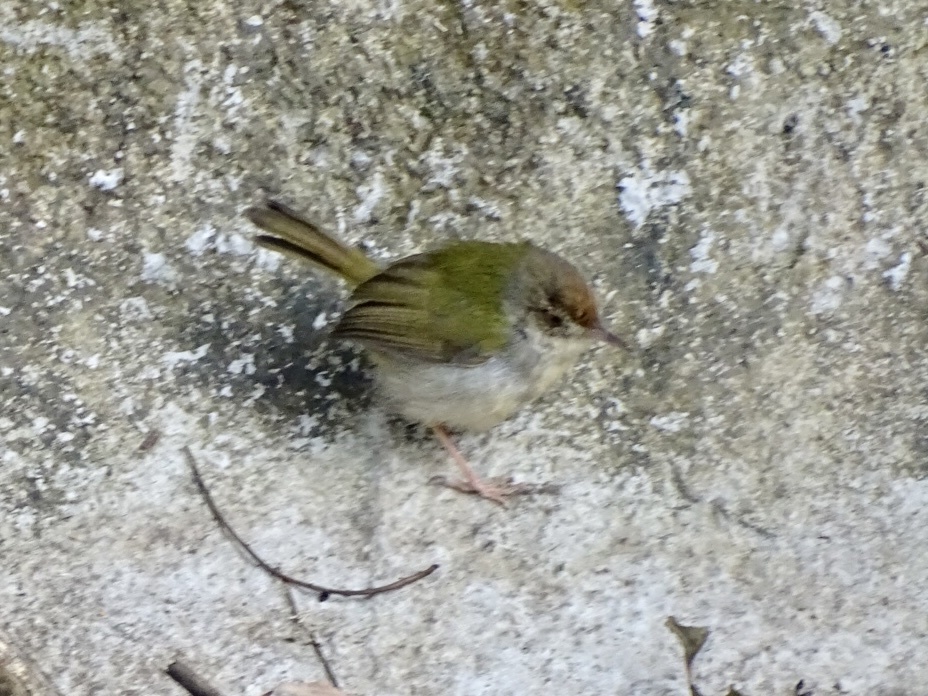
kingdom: Animalia
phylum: Chordata
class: Aves
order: Passeriformes
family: Cisticolidae
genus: Orthotomus
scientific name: Orthotomus sutorius
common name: Common tailorbird
